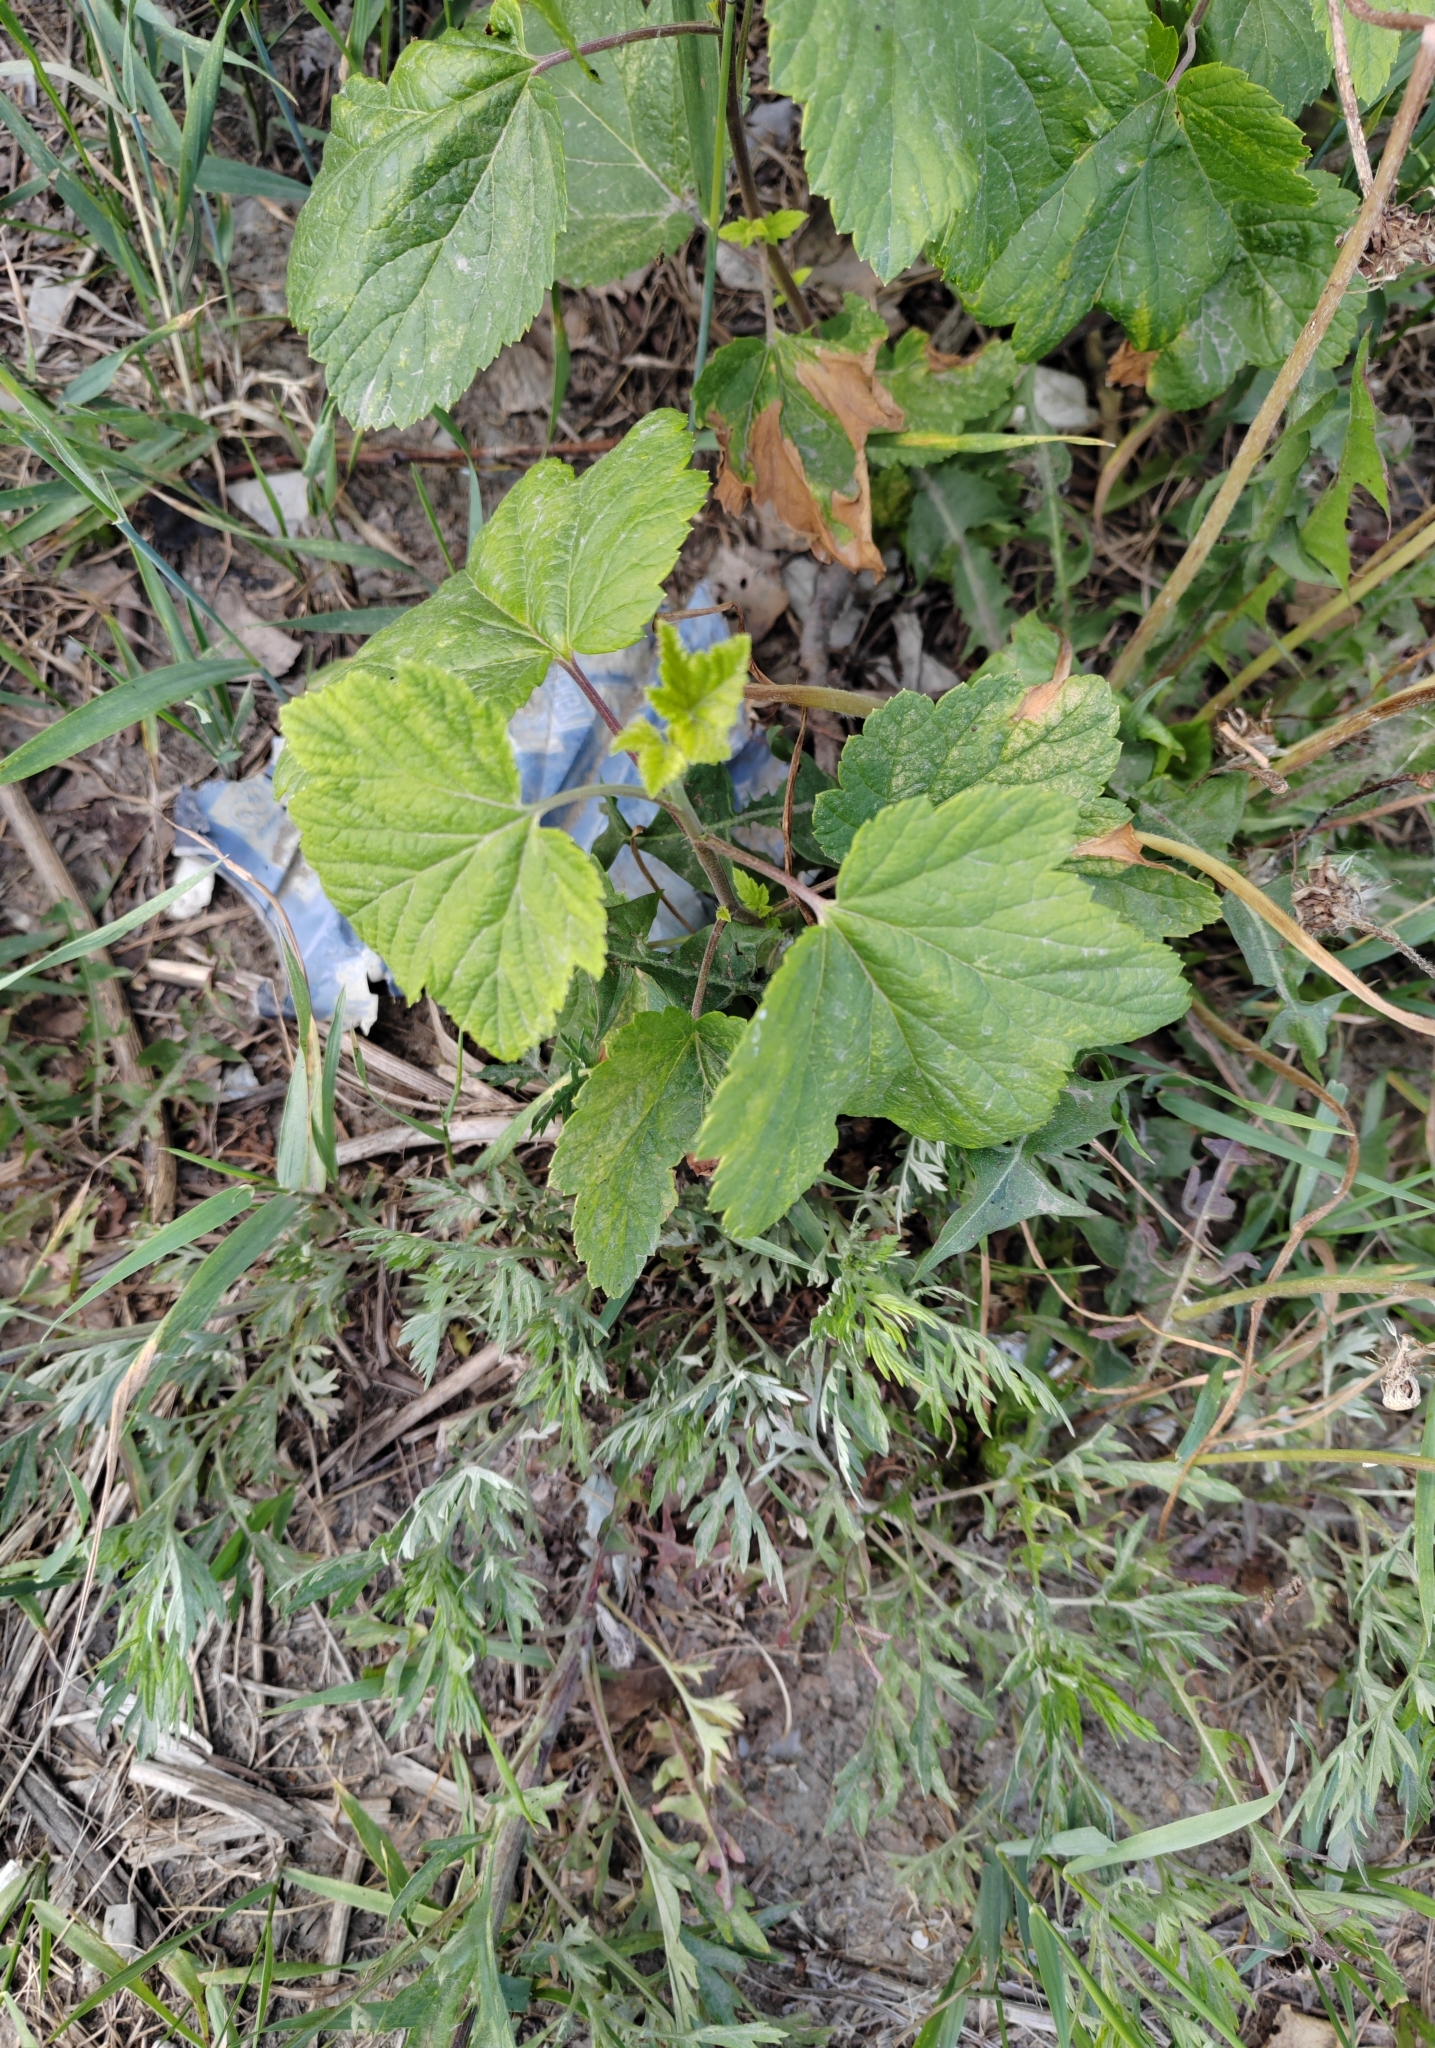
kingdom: Plantae
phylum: Tracheophyta
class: Magnoliopsida
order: Saxifragales
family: Grossulariaceae
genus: Ribes
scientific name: Ribes nigrum
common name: Black currant
